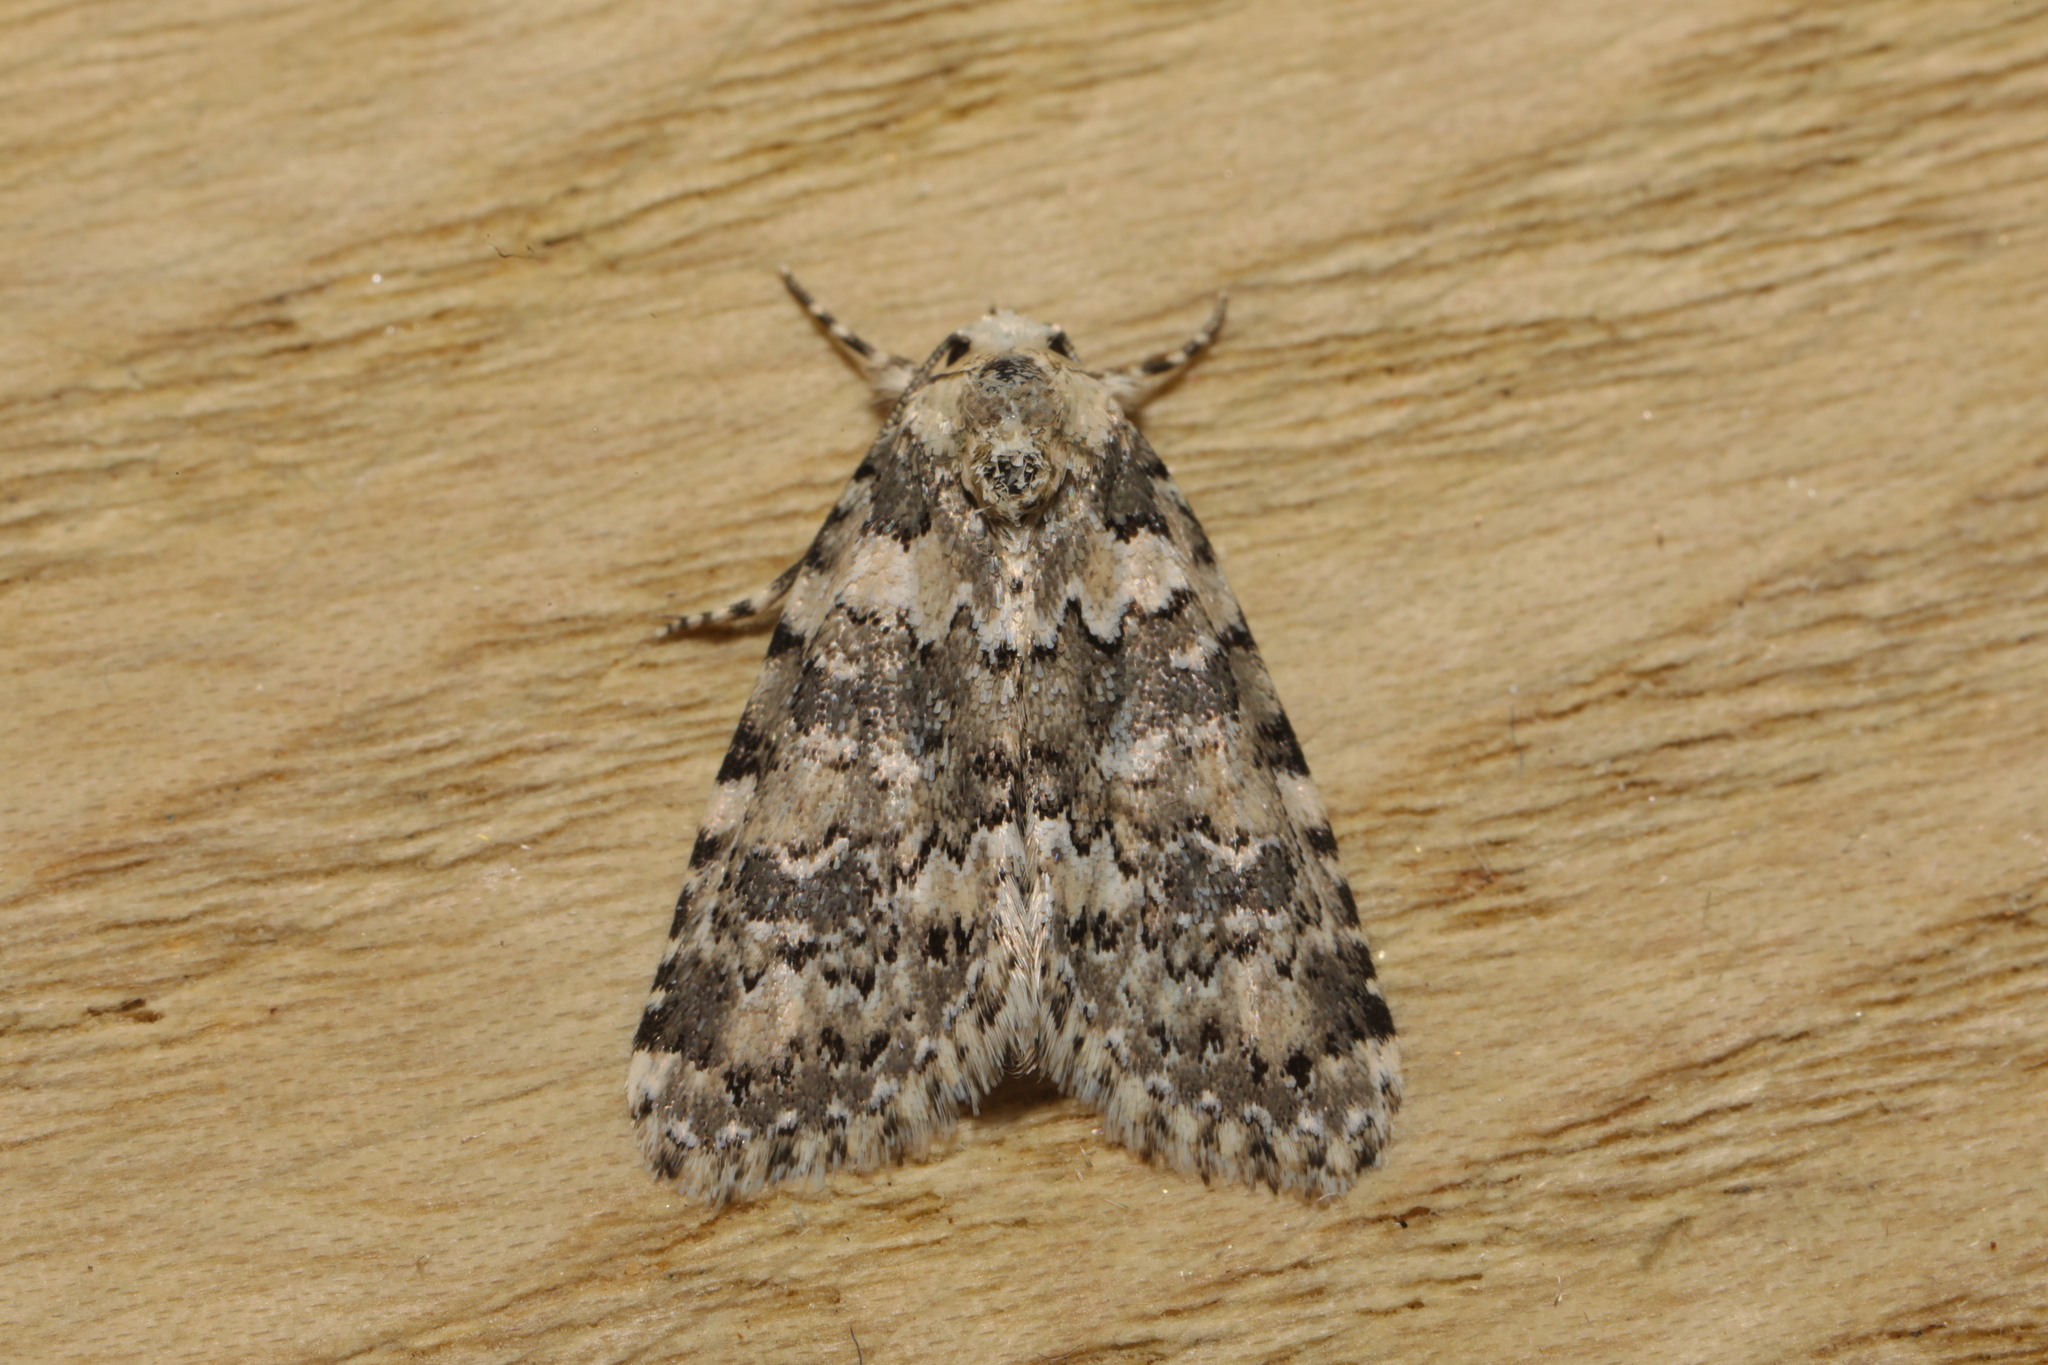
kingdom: Animalia
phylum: Arthropoda
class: Insecta
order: Lepidoptera
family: Noctuidae
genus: Bryophila
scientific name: Bryophila domestica
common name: Marbled beauty
